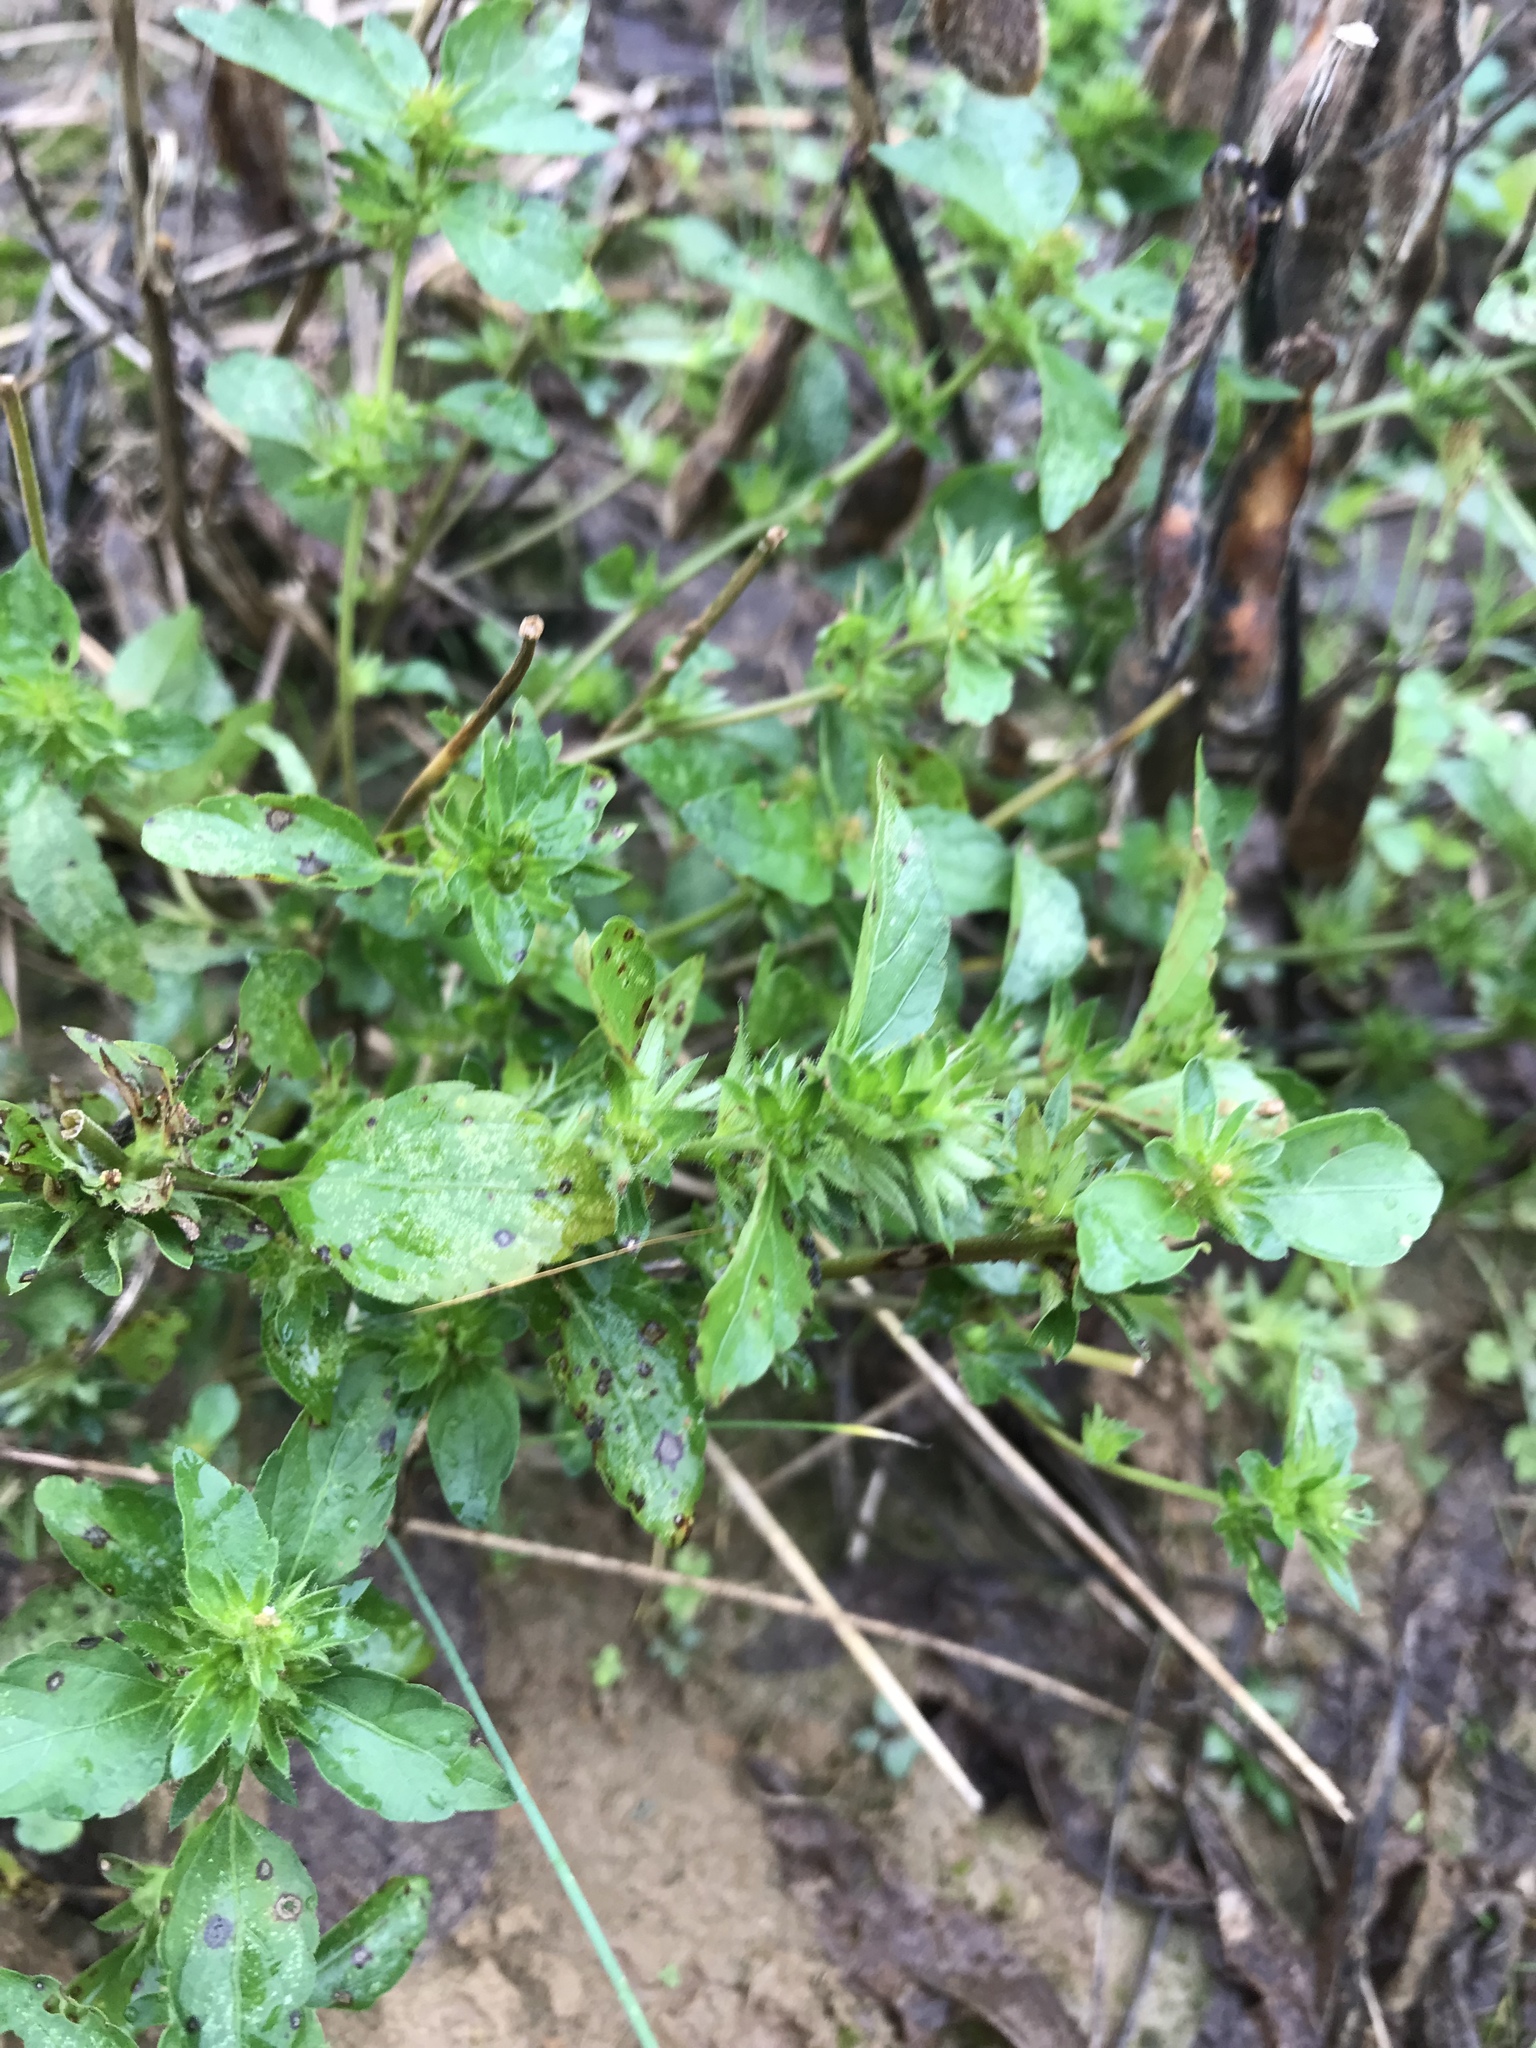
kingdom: Plantae
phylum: Tracheophyta
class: Magnoliopsida
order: Malpighiales
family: Euphorbiaceae
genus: Acalypha
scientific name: Acalypha rhomboidea
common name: Rhombic copperleaf
